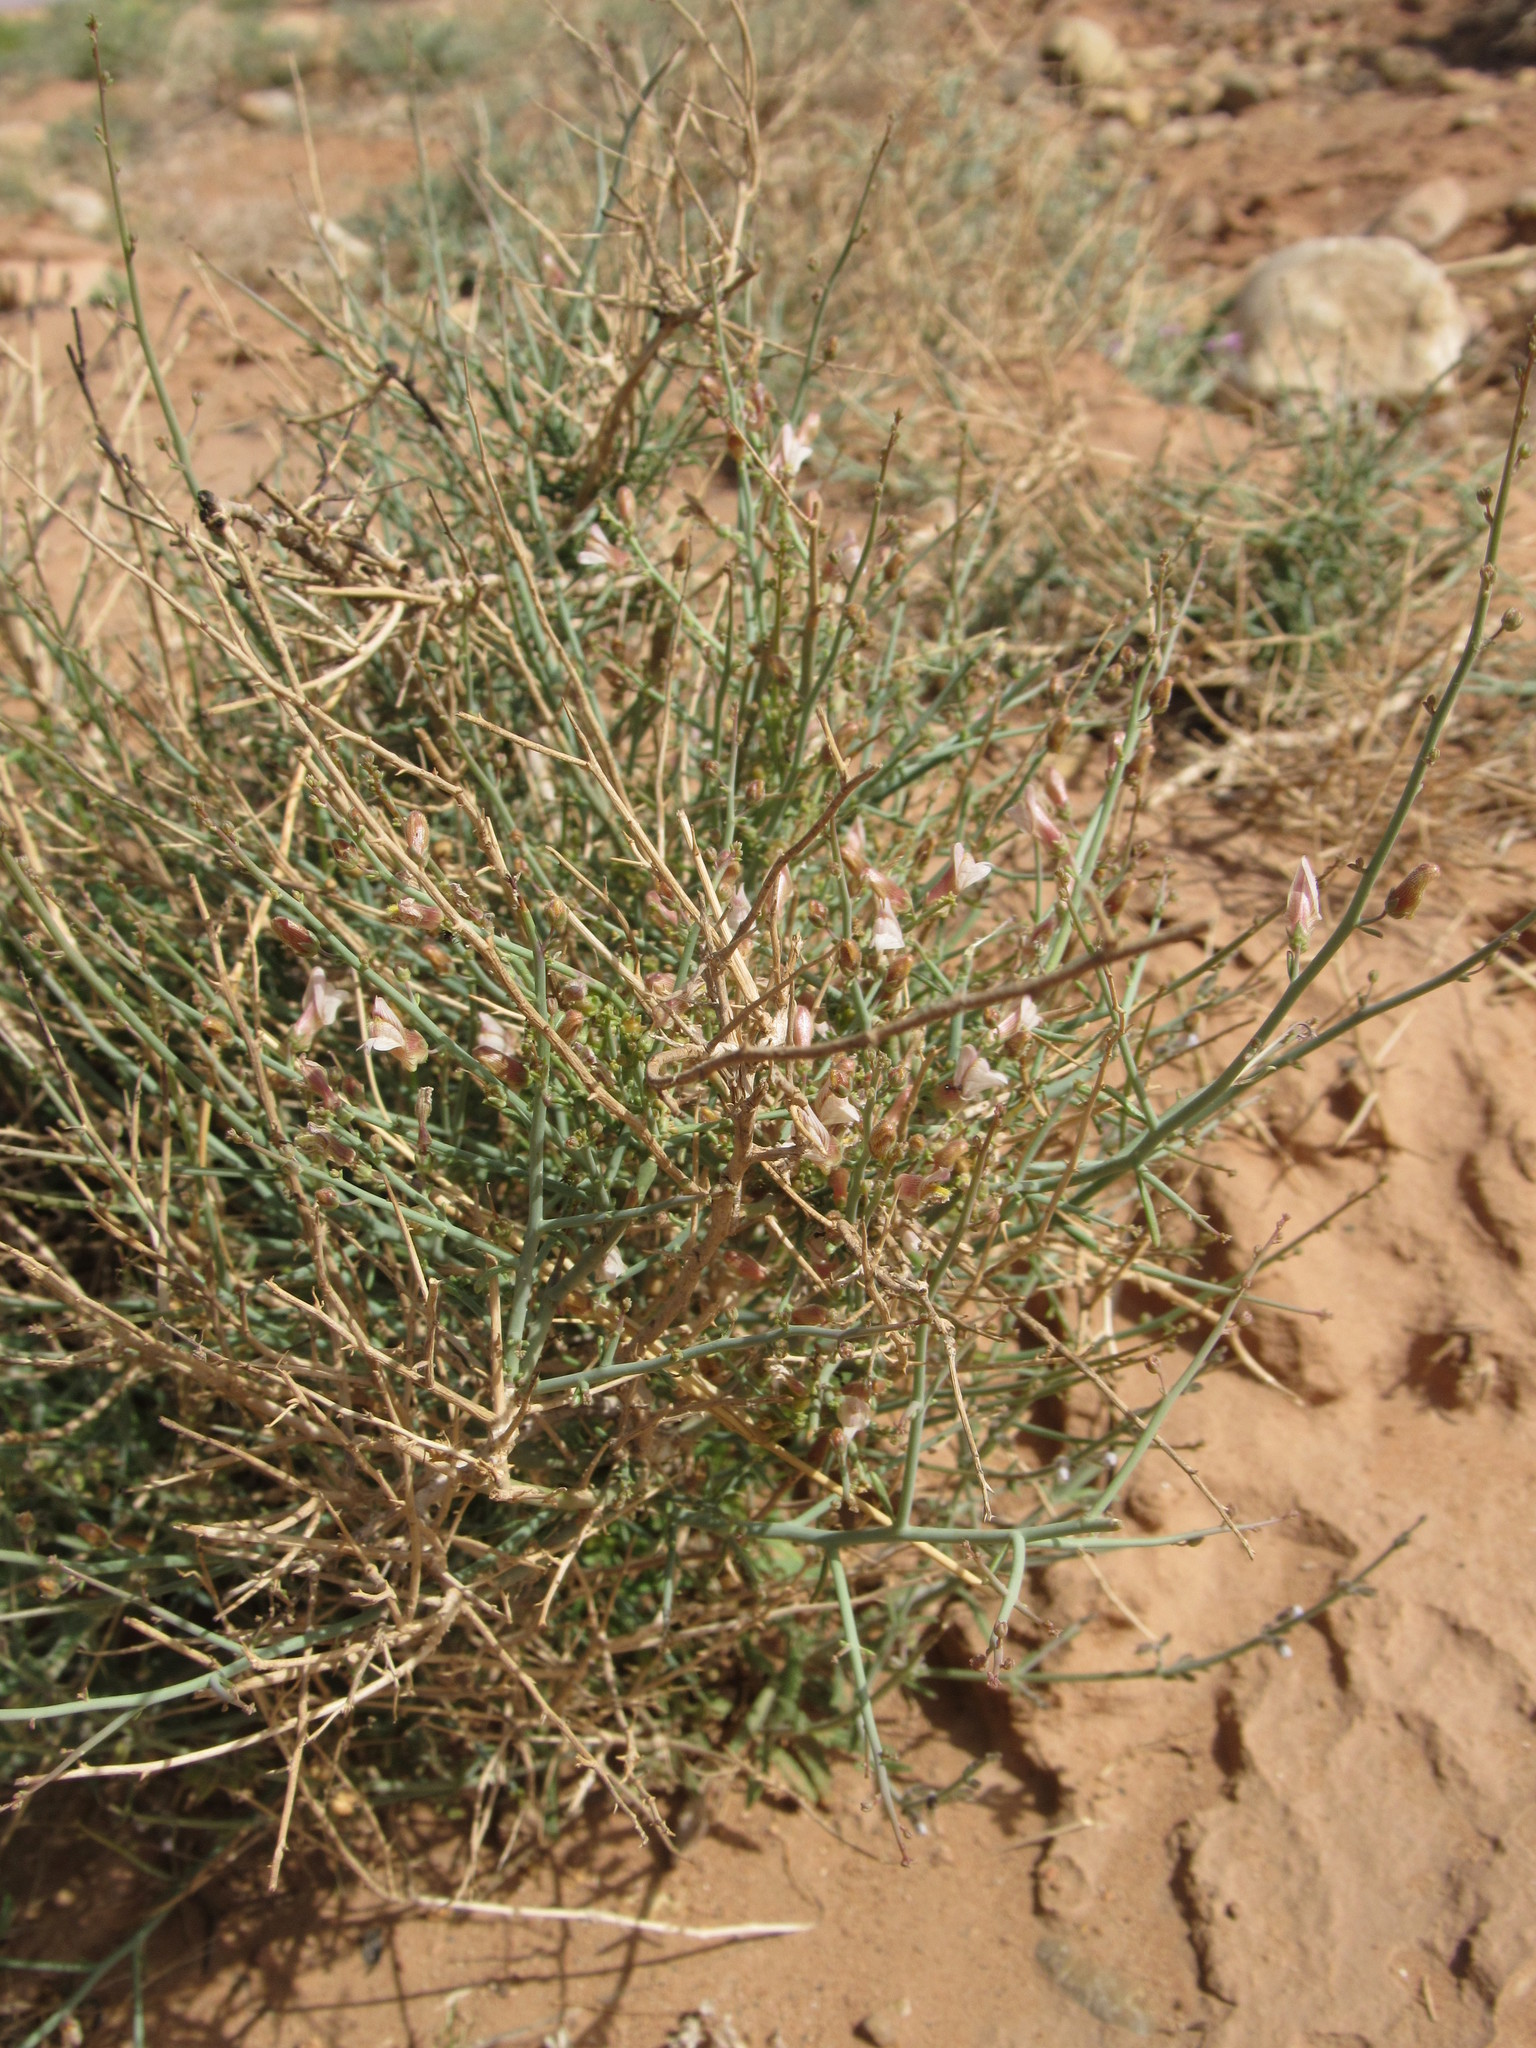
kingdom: Plantae
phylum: Tracheophyta
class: Magnoliopsida
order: Lamiales
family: Plantaginaceae
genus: Acanthorrhinum
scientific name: Acanthorrhinum ramosissimum
